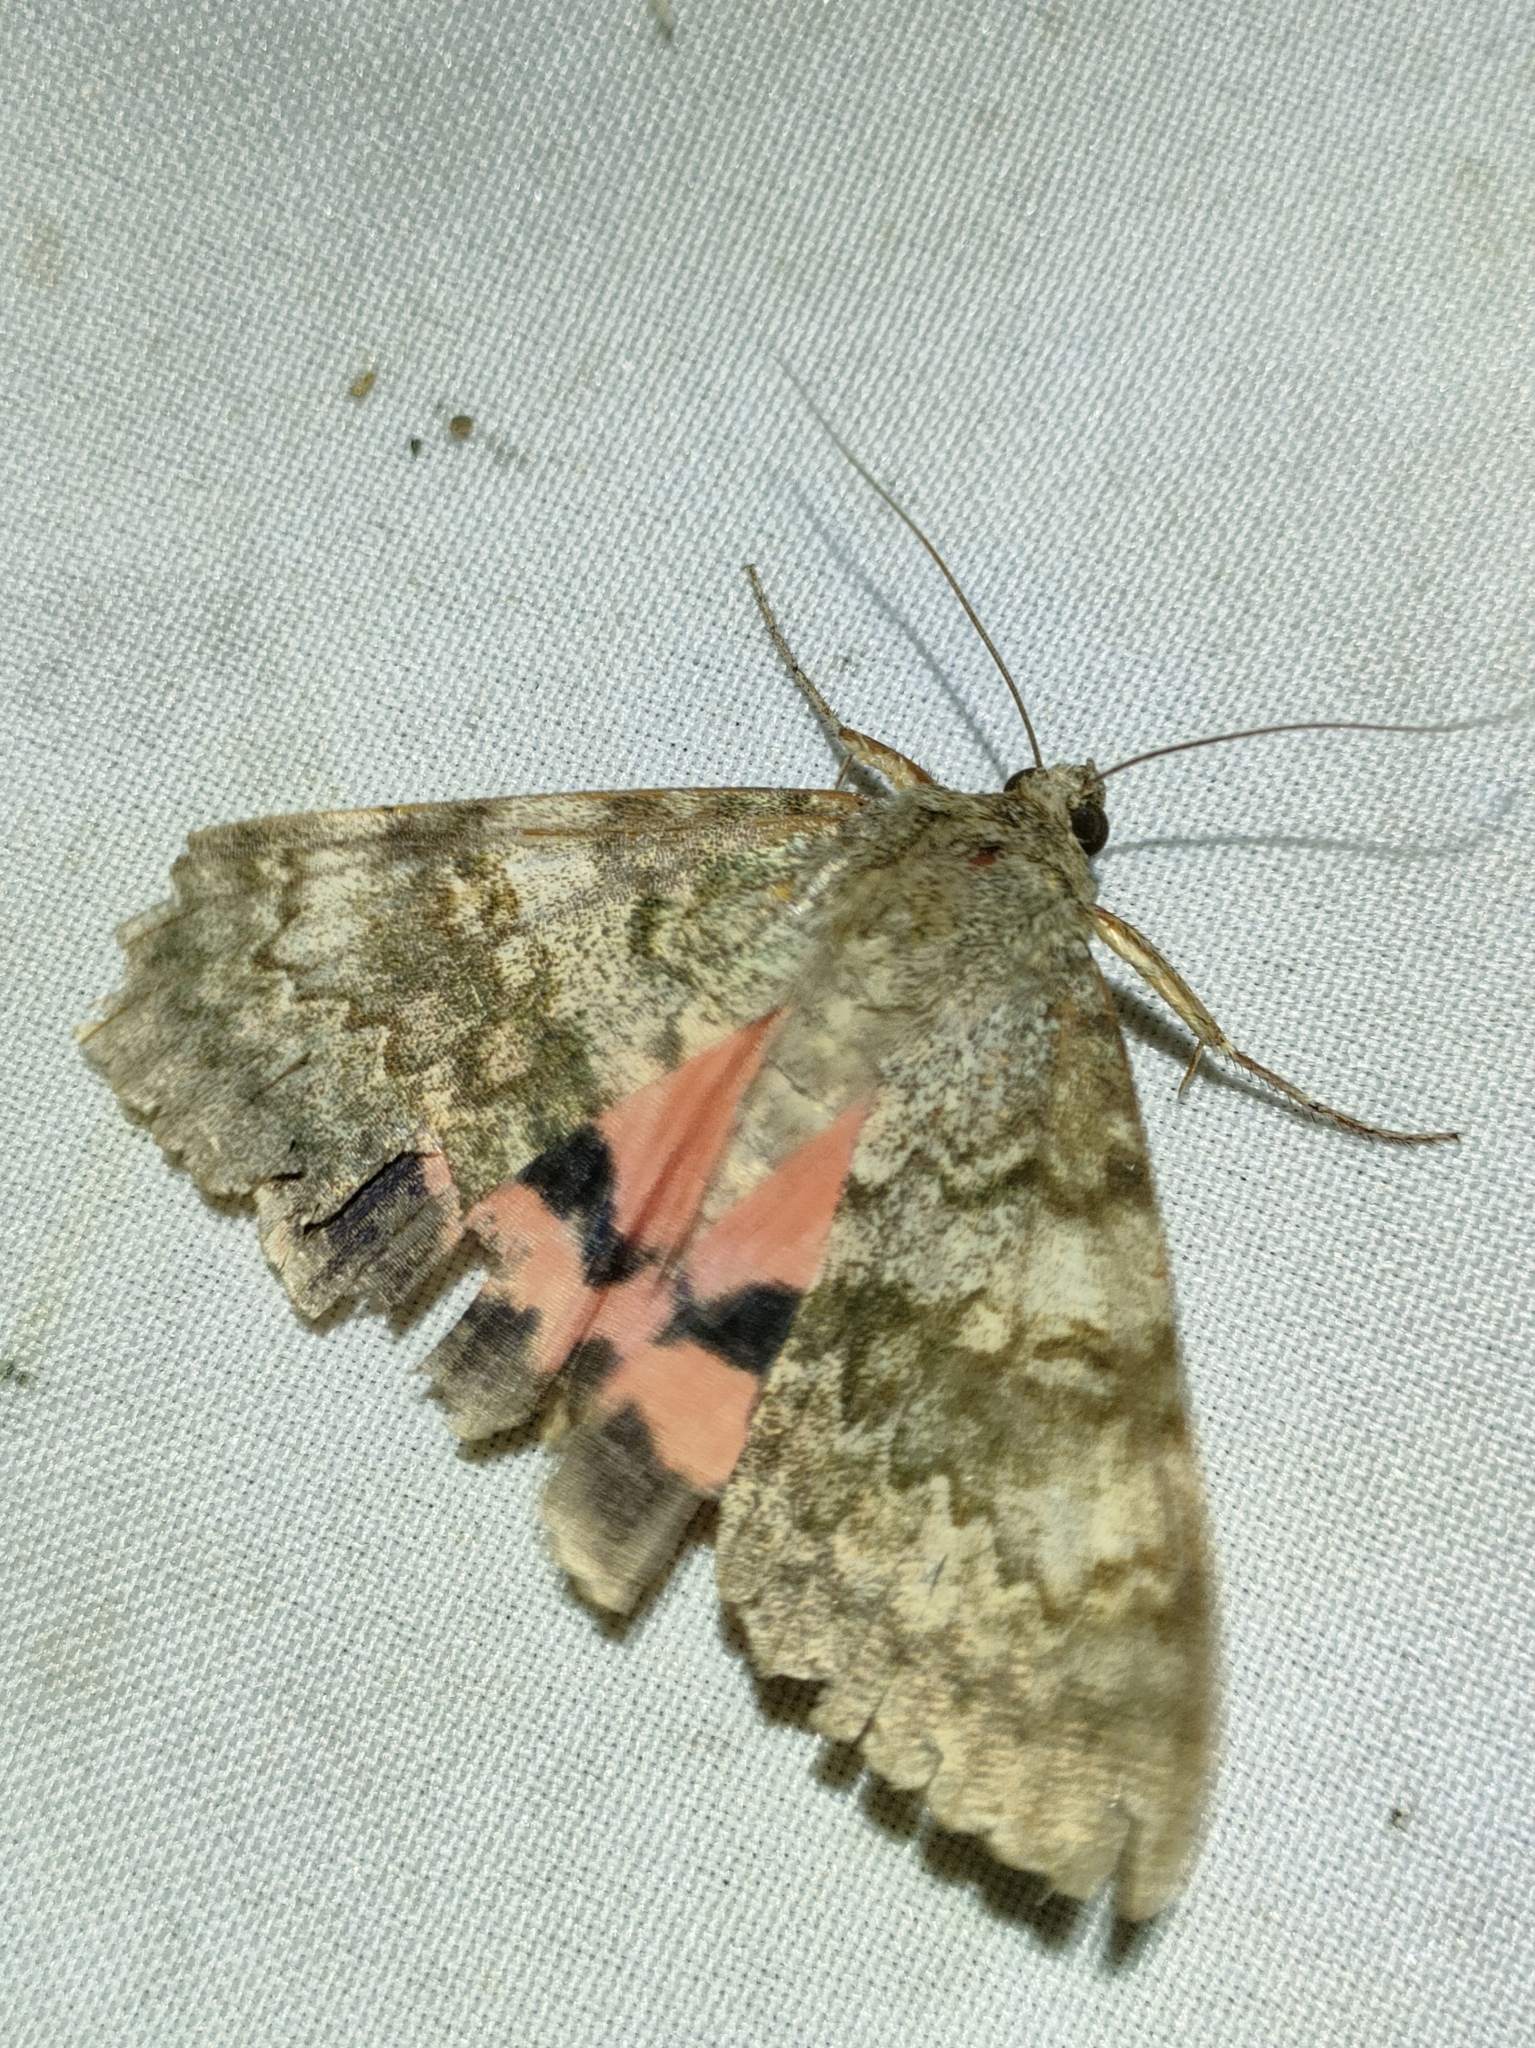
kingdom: Animalia
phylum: Arthropoda
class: Insecta
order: Lepidoptera
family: Erebidae
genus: Catocala
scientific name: Catocala elocata
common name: French red underwing
